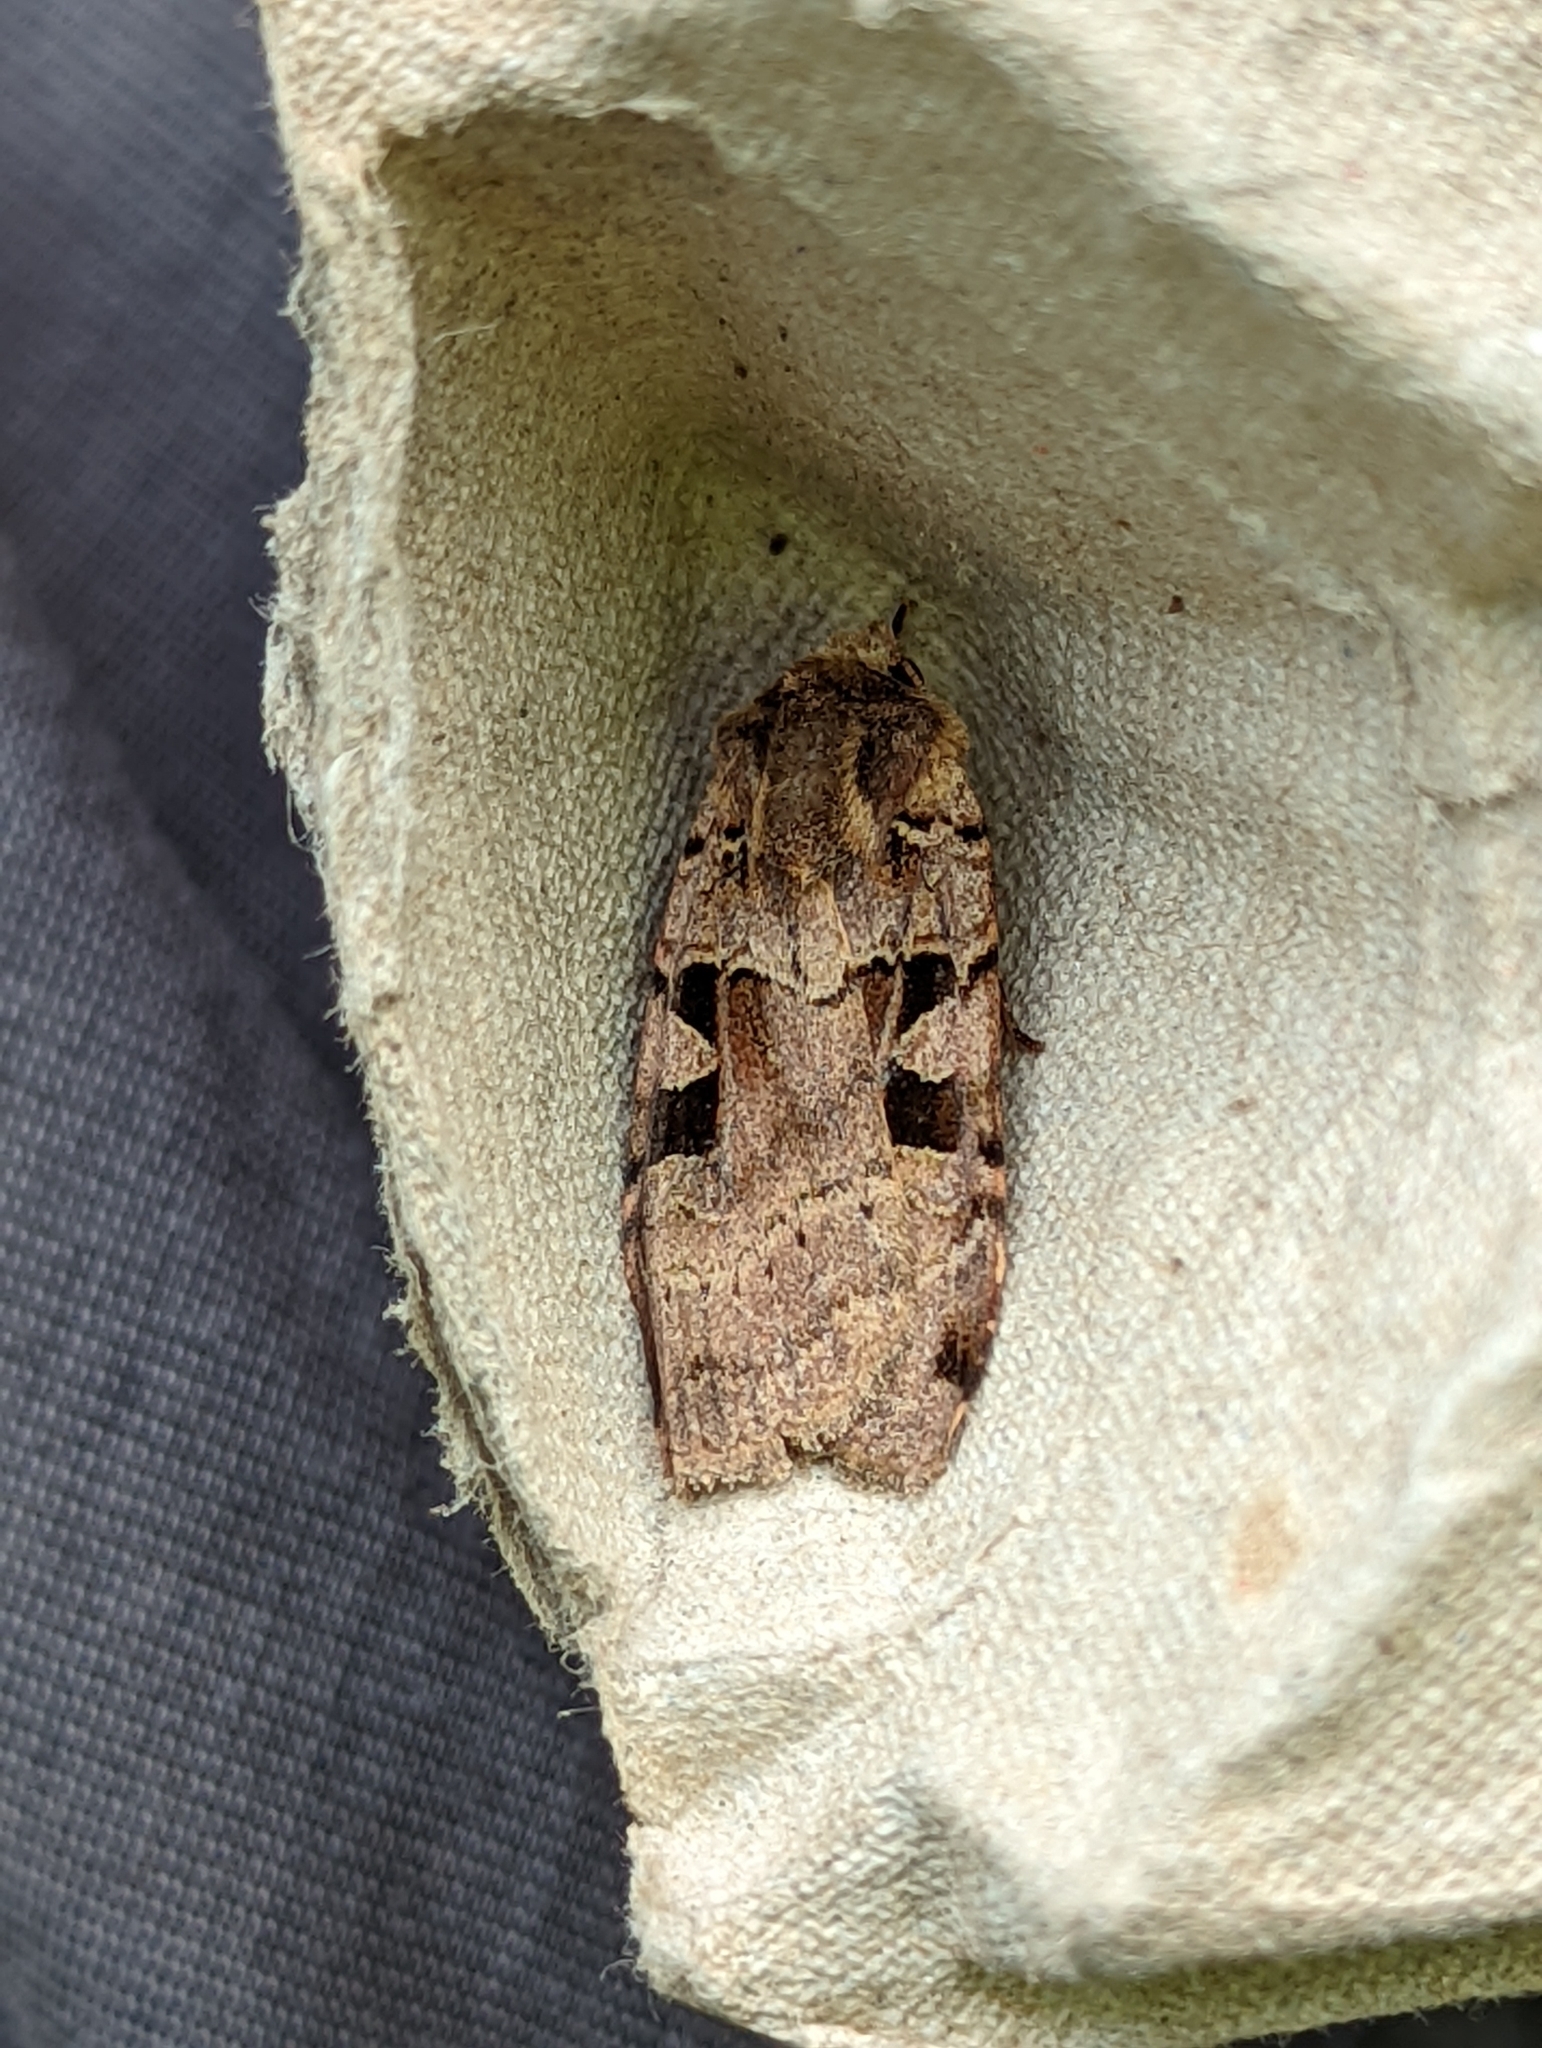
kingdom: Animalia
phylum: Arthropoda
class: Insecta
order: Lepidoptera
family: Noctuidae
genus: Xestia
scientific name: Xestia triangulum
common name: Double square-spot
